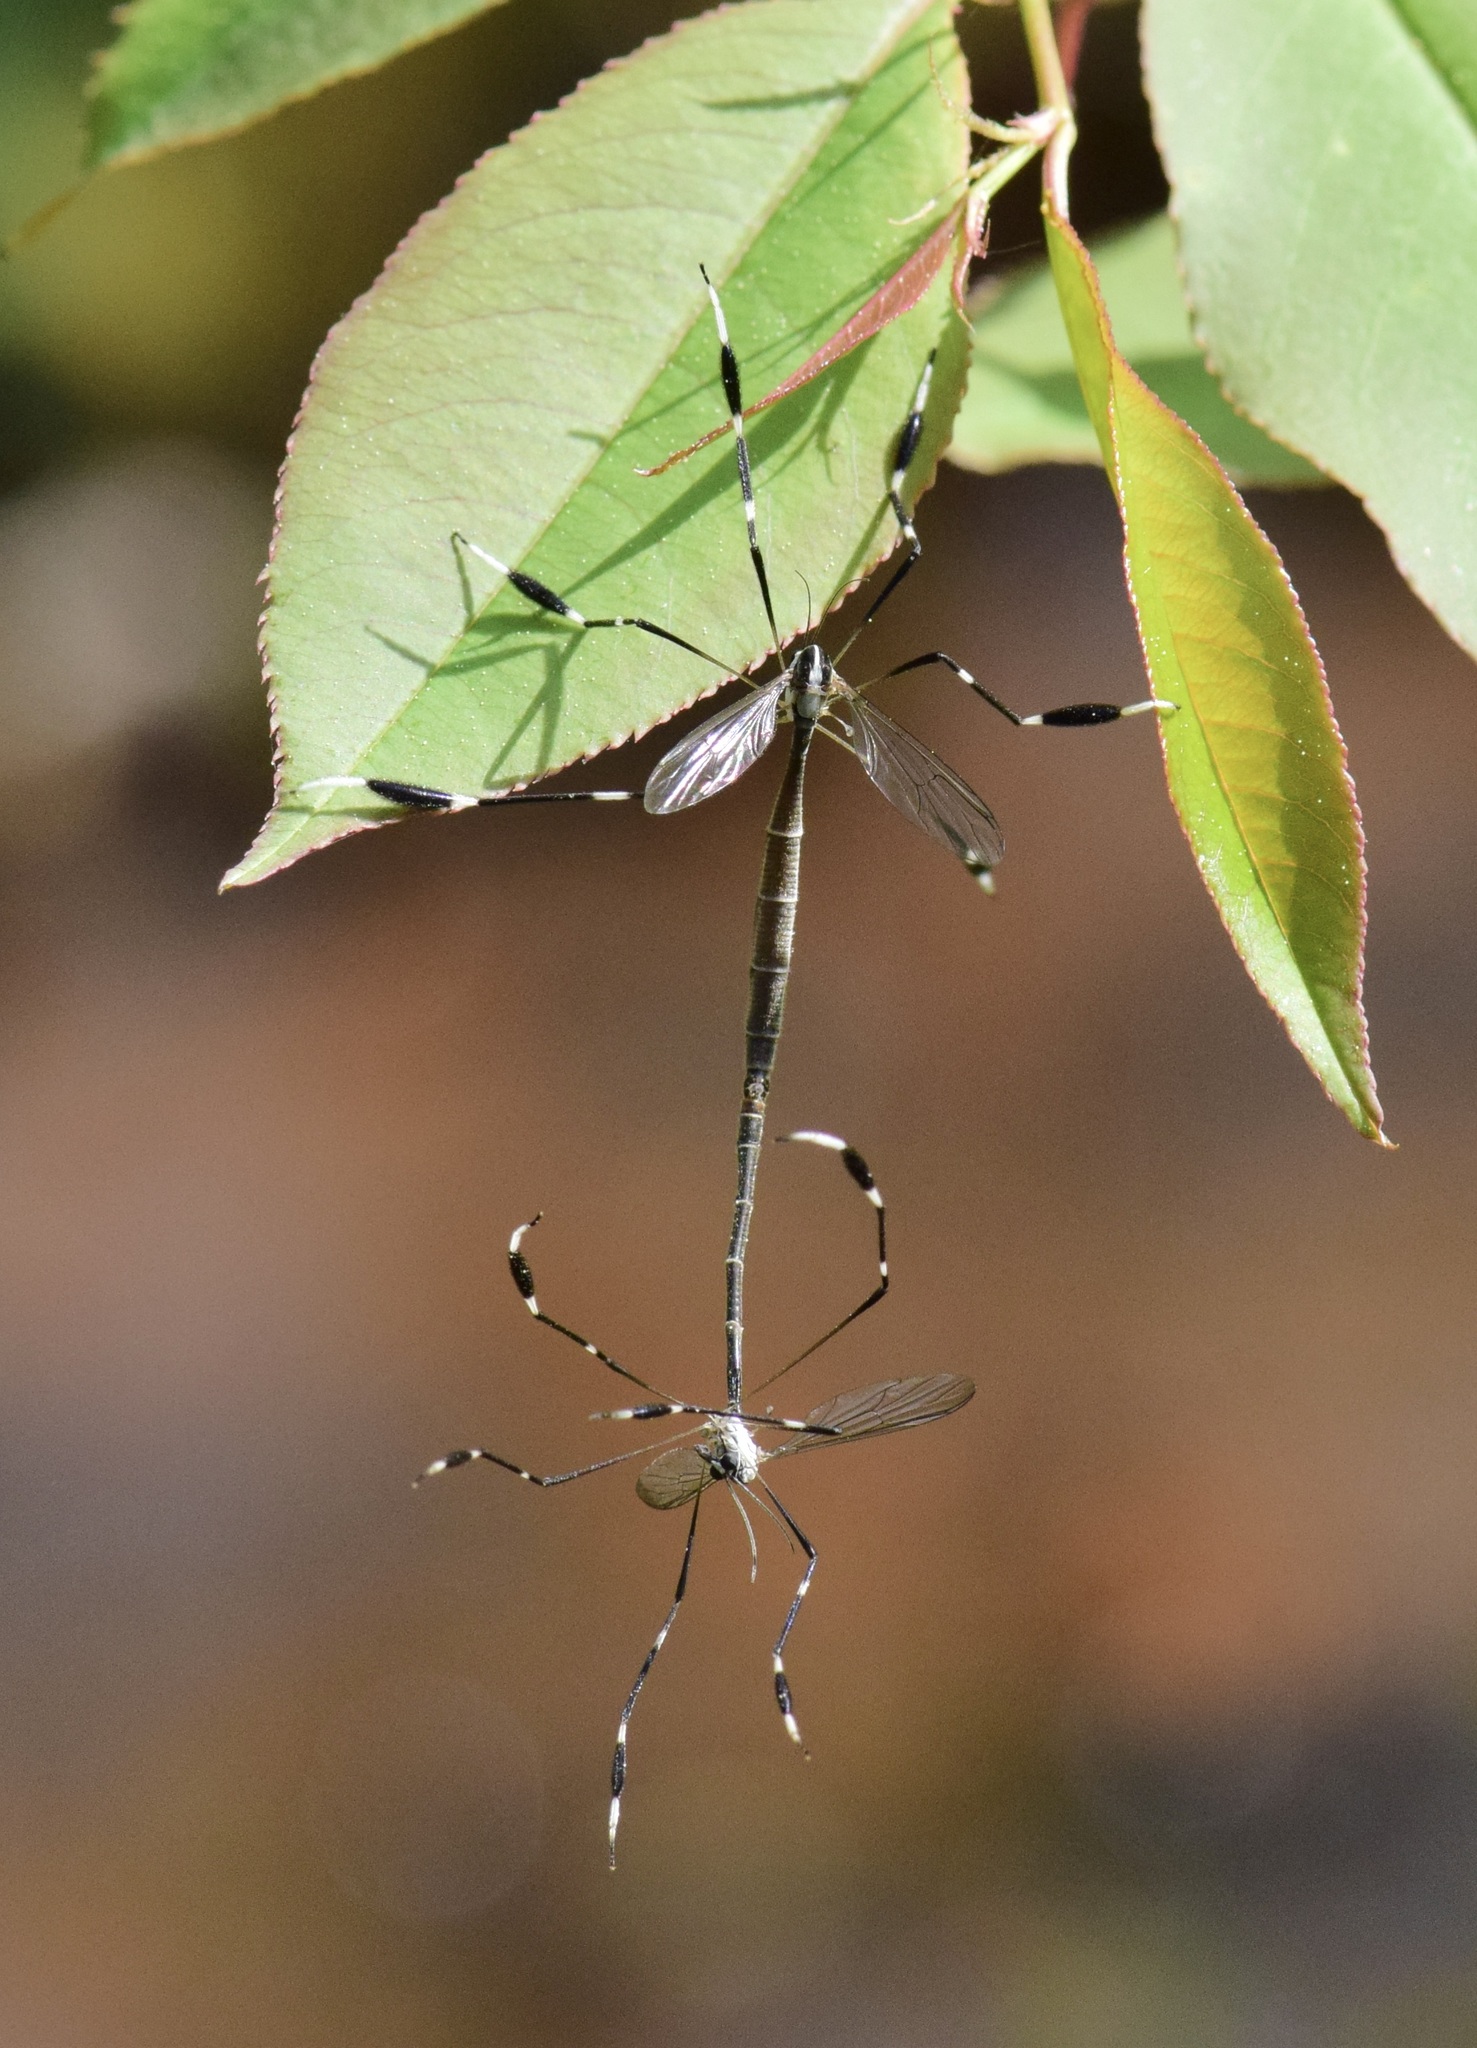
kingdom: Animalia
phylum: Arthropoda
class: Insecta
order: Diptera
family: Ptychopteridae
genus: Bittacomorpha
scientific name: Bittacomorpha clavipes
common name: Eastern phantom crane fly
